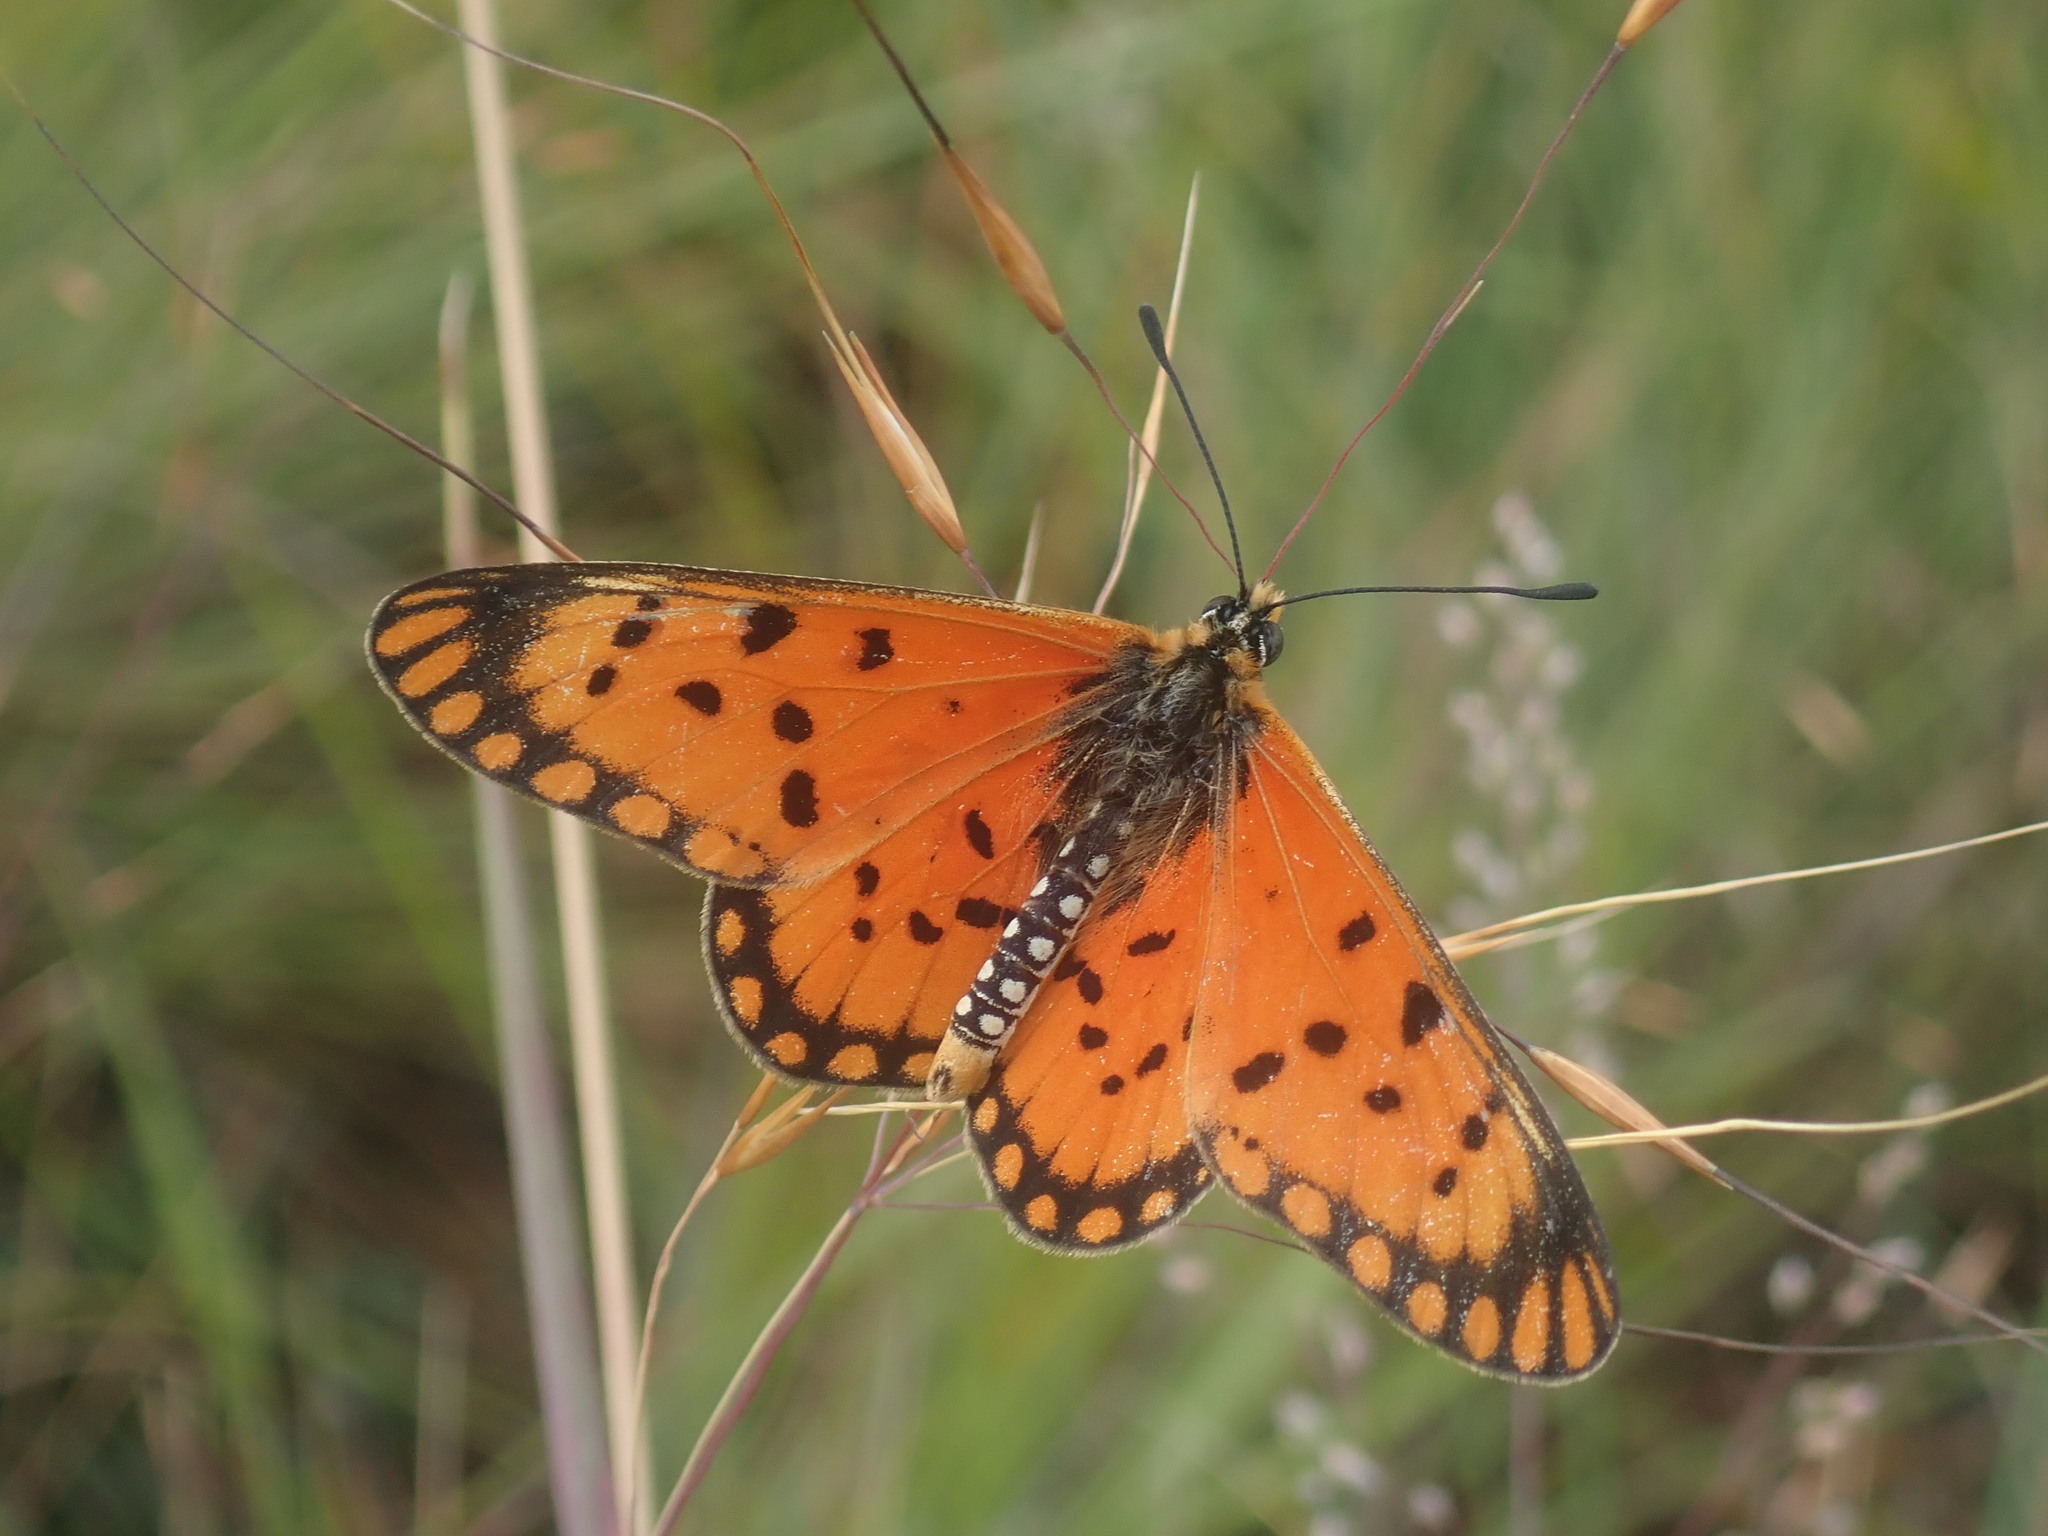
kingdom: Animalia
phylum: Arthropoda
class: Insecta
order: Lepidoptera
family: Nymphalidae
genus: Acraea
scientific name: Acraea Telchinia alalonga
